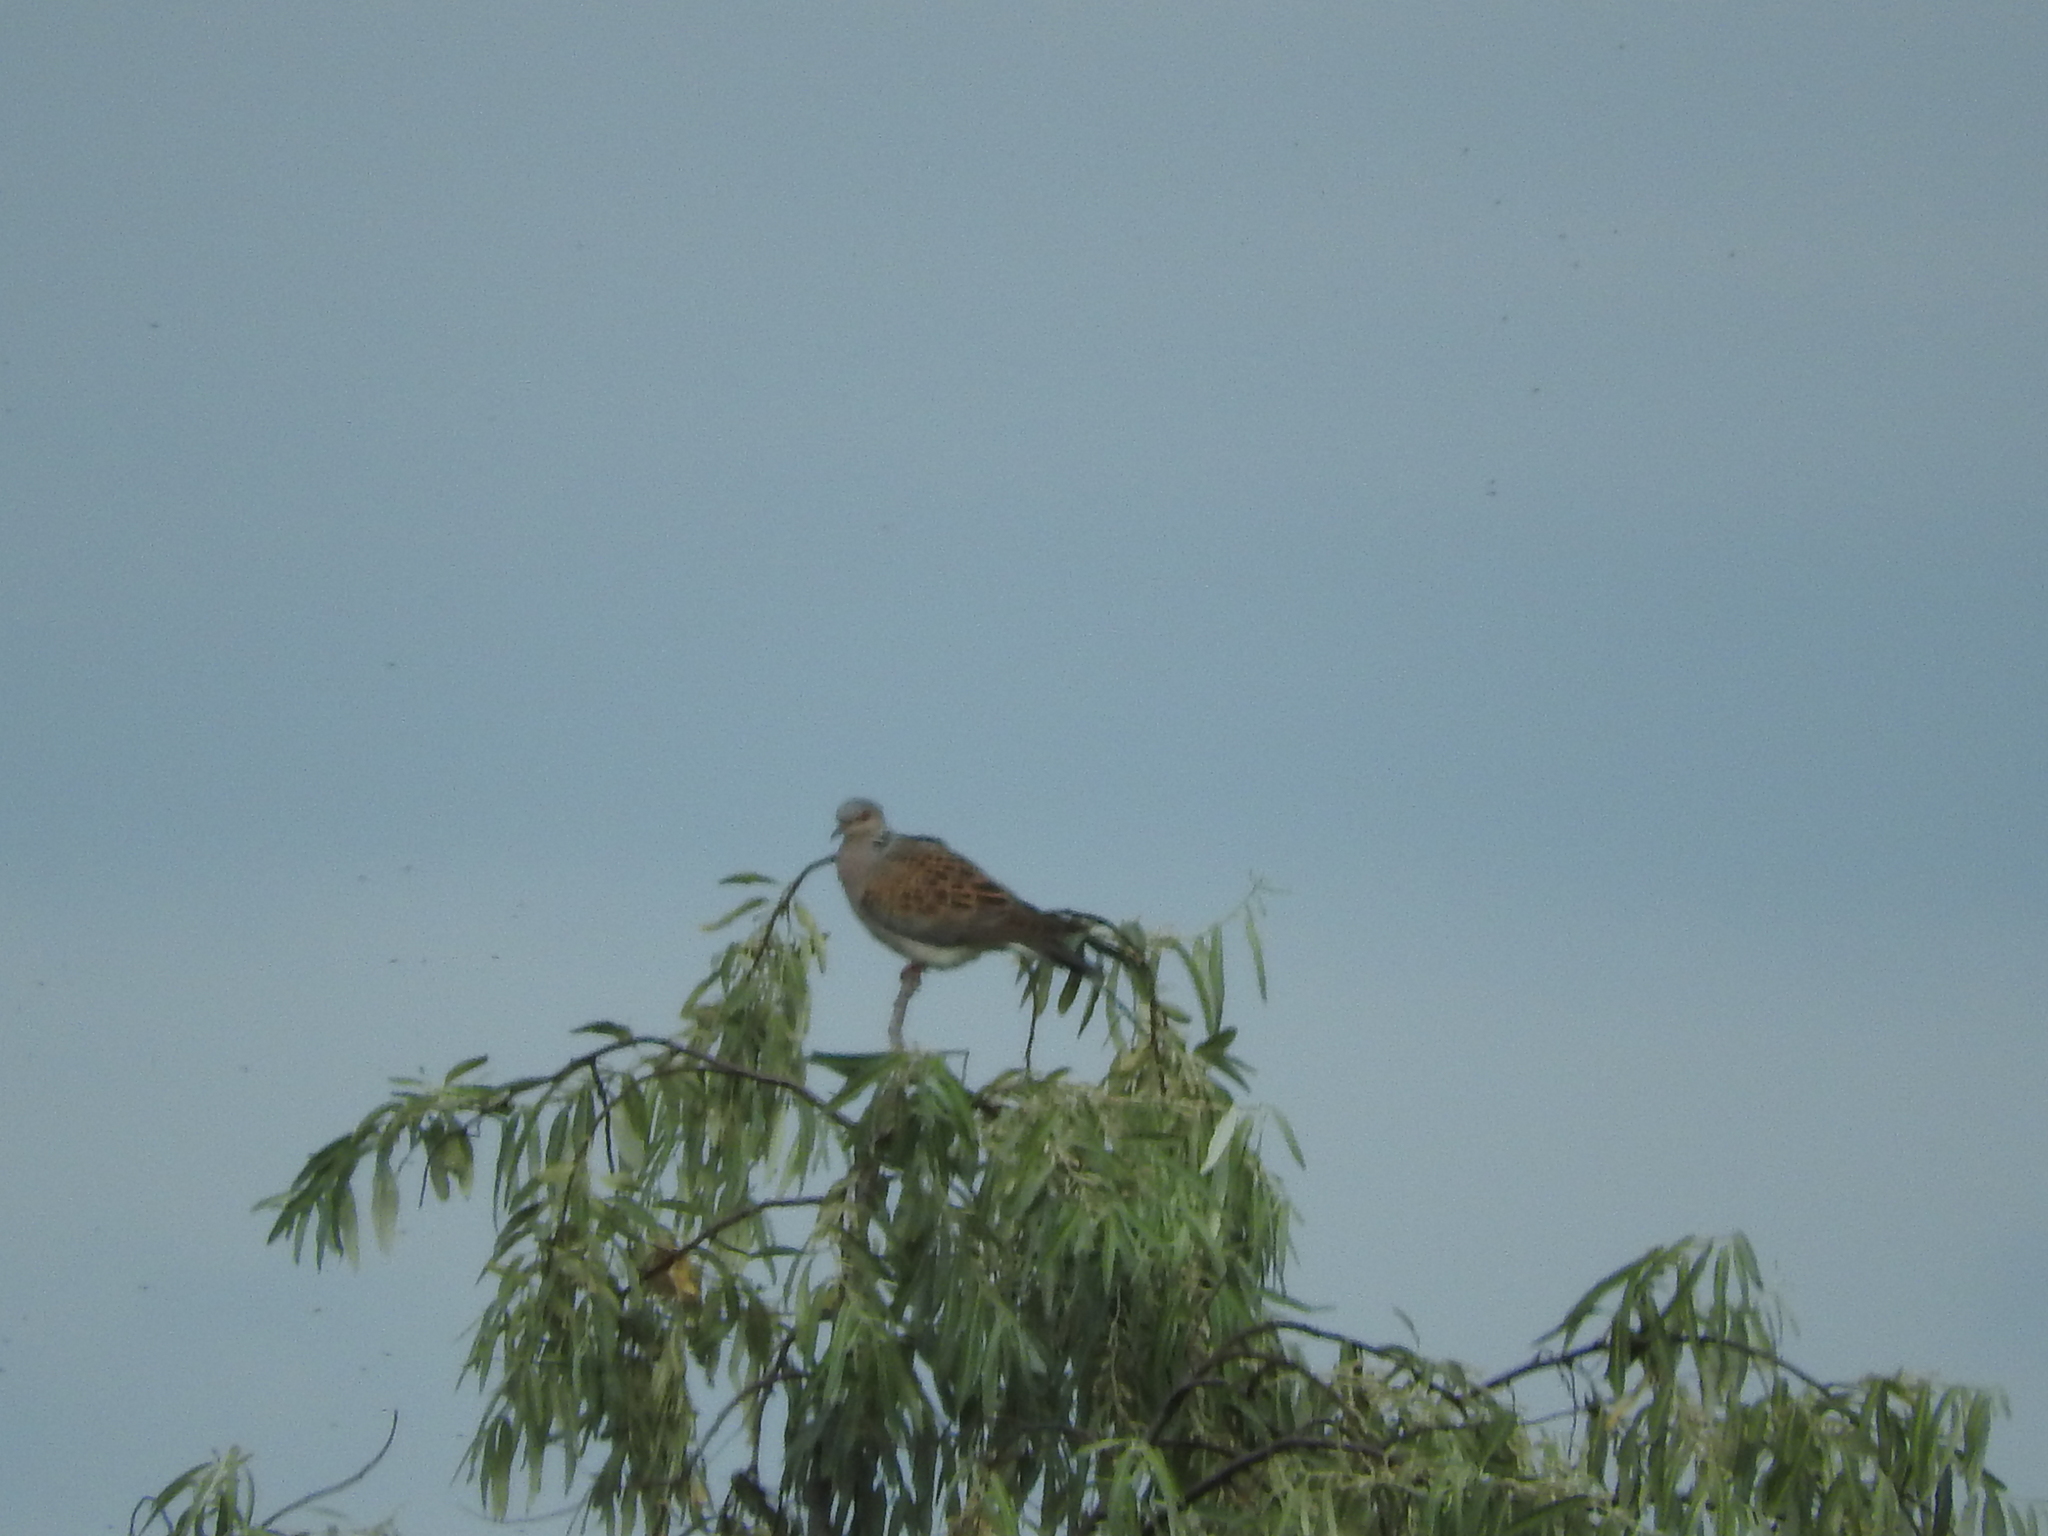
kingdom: Animalia
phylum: Chordata
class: Aves
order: Columbiformes
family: Columbidae
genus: Streptopelia
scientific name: Streptopelia turtur
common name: European turtle dove
